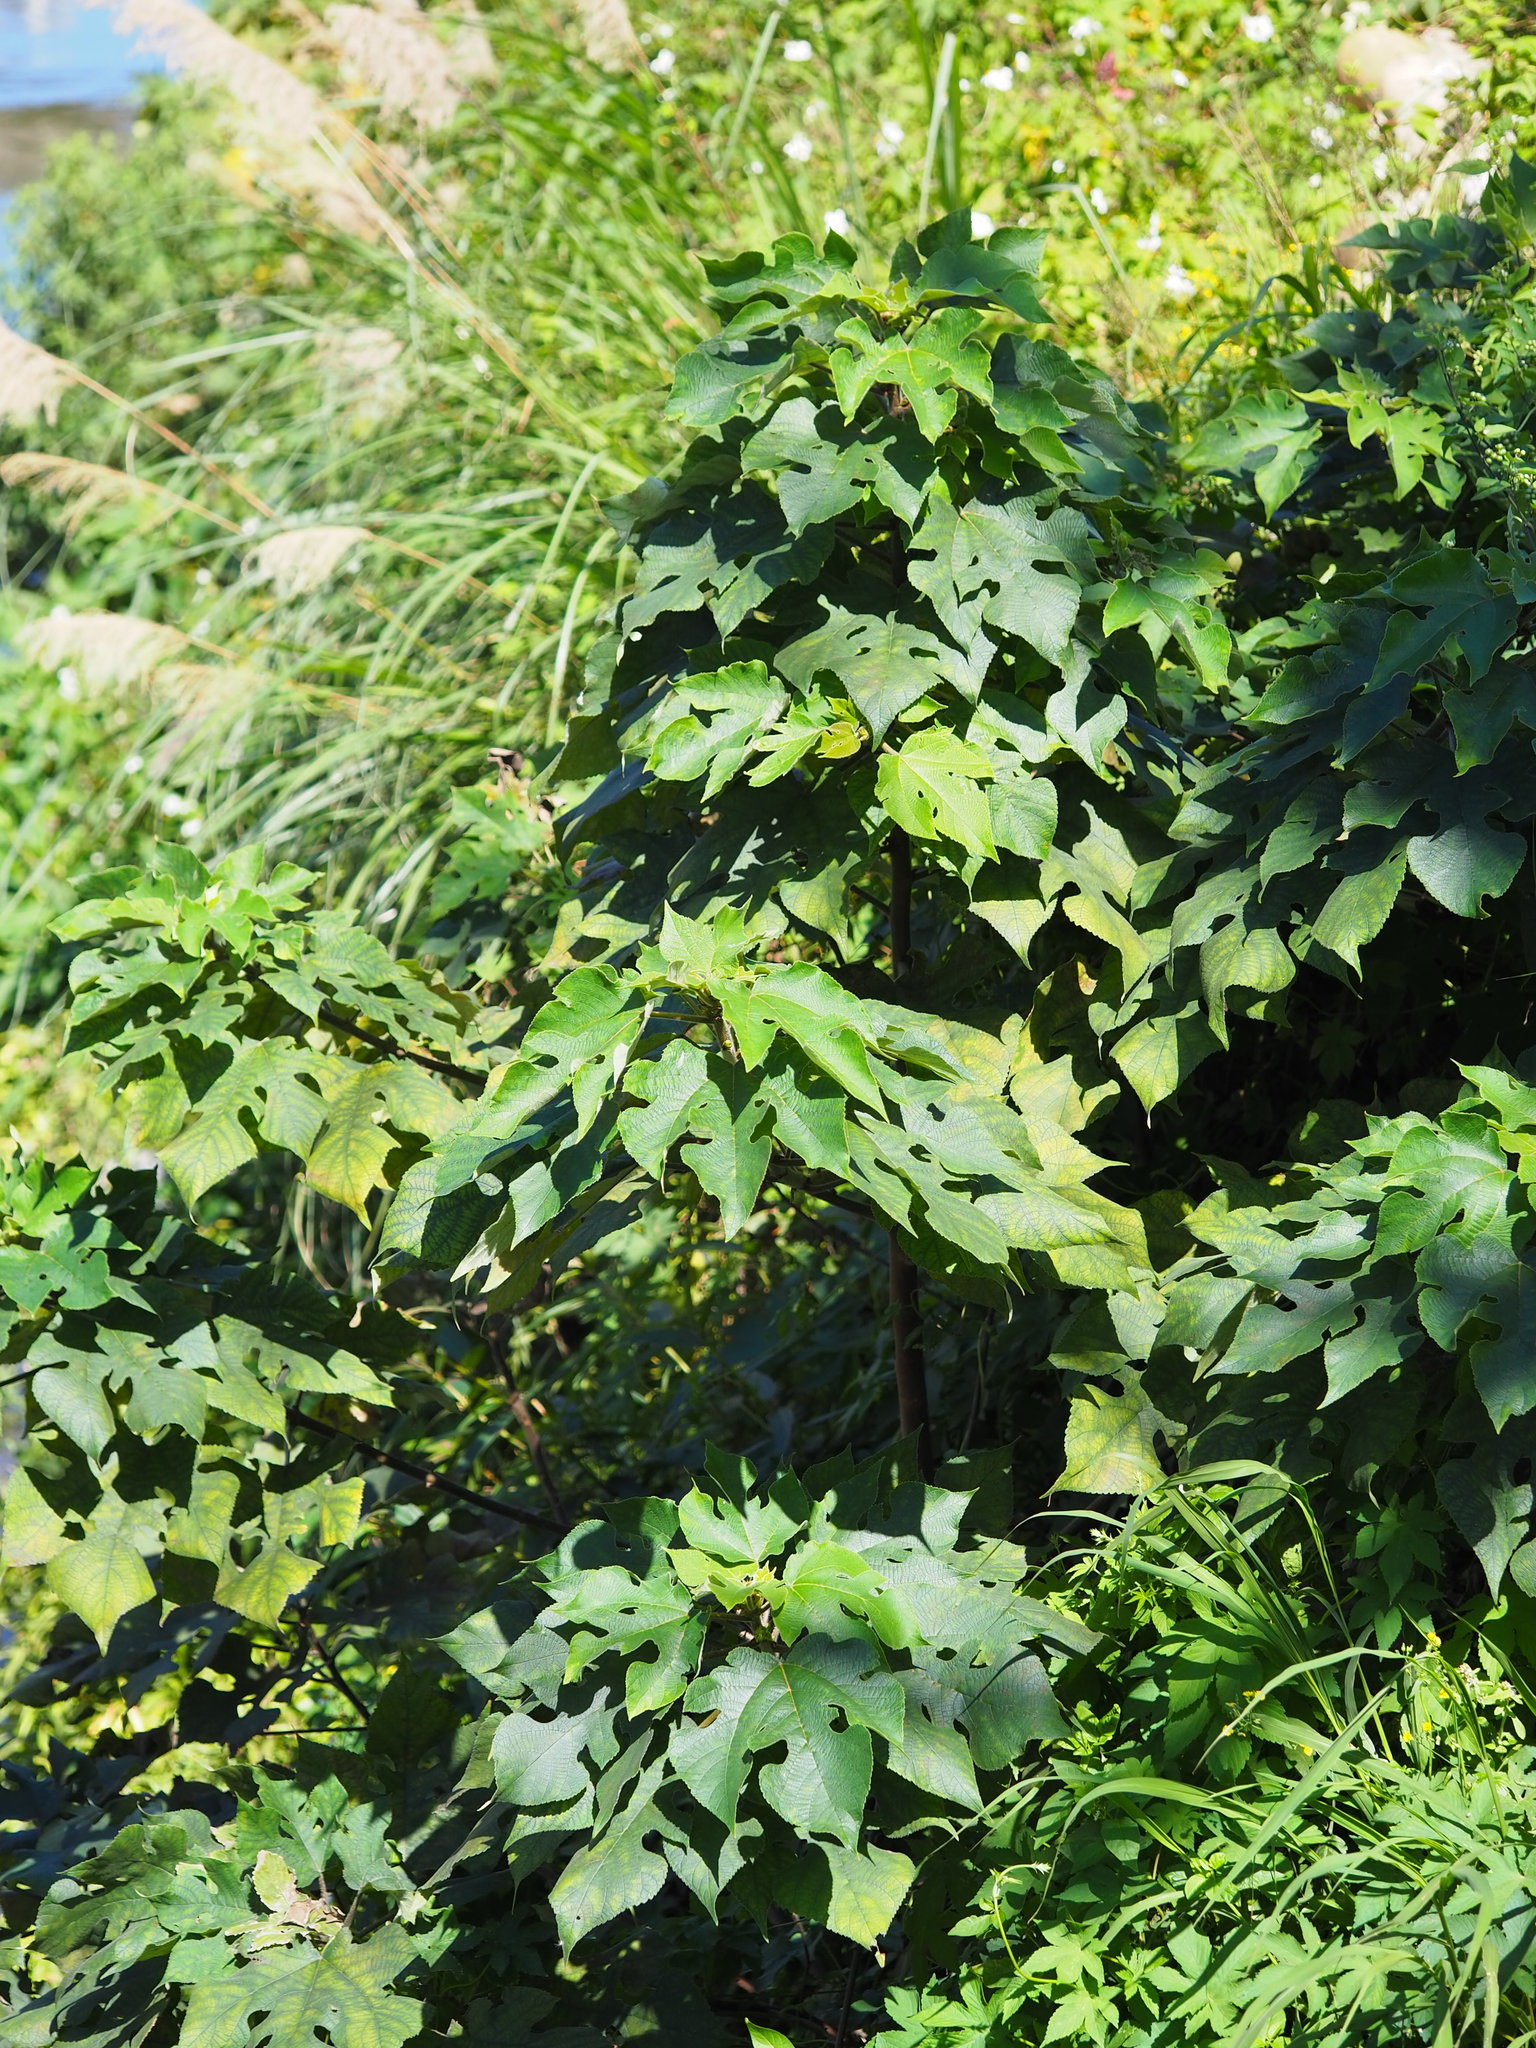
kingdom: Plantae
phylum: Tracheophyta
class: Magnoliopsida
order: Rosales
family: Moraceae
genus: Broussonetia
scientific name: Broussonetia papyrifera
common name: Paper mulberry
